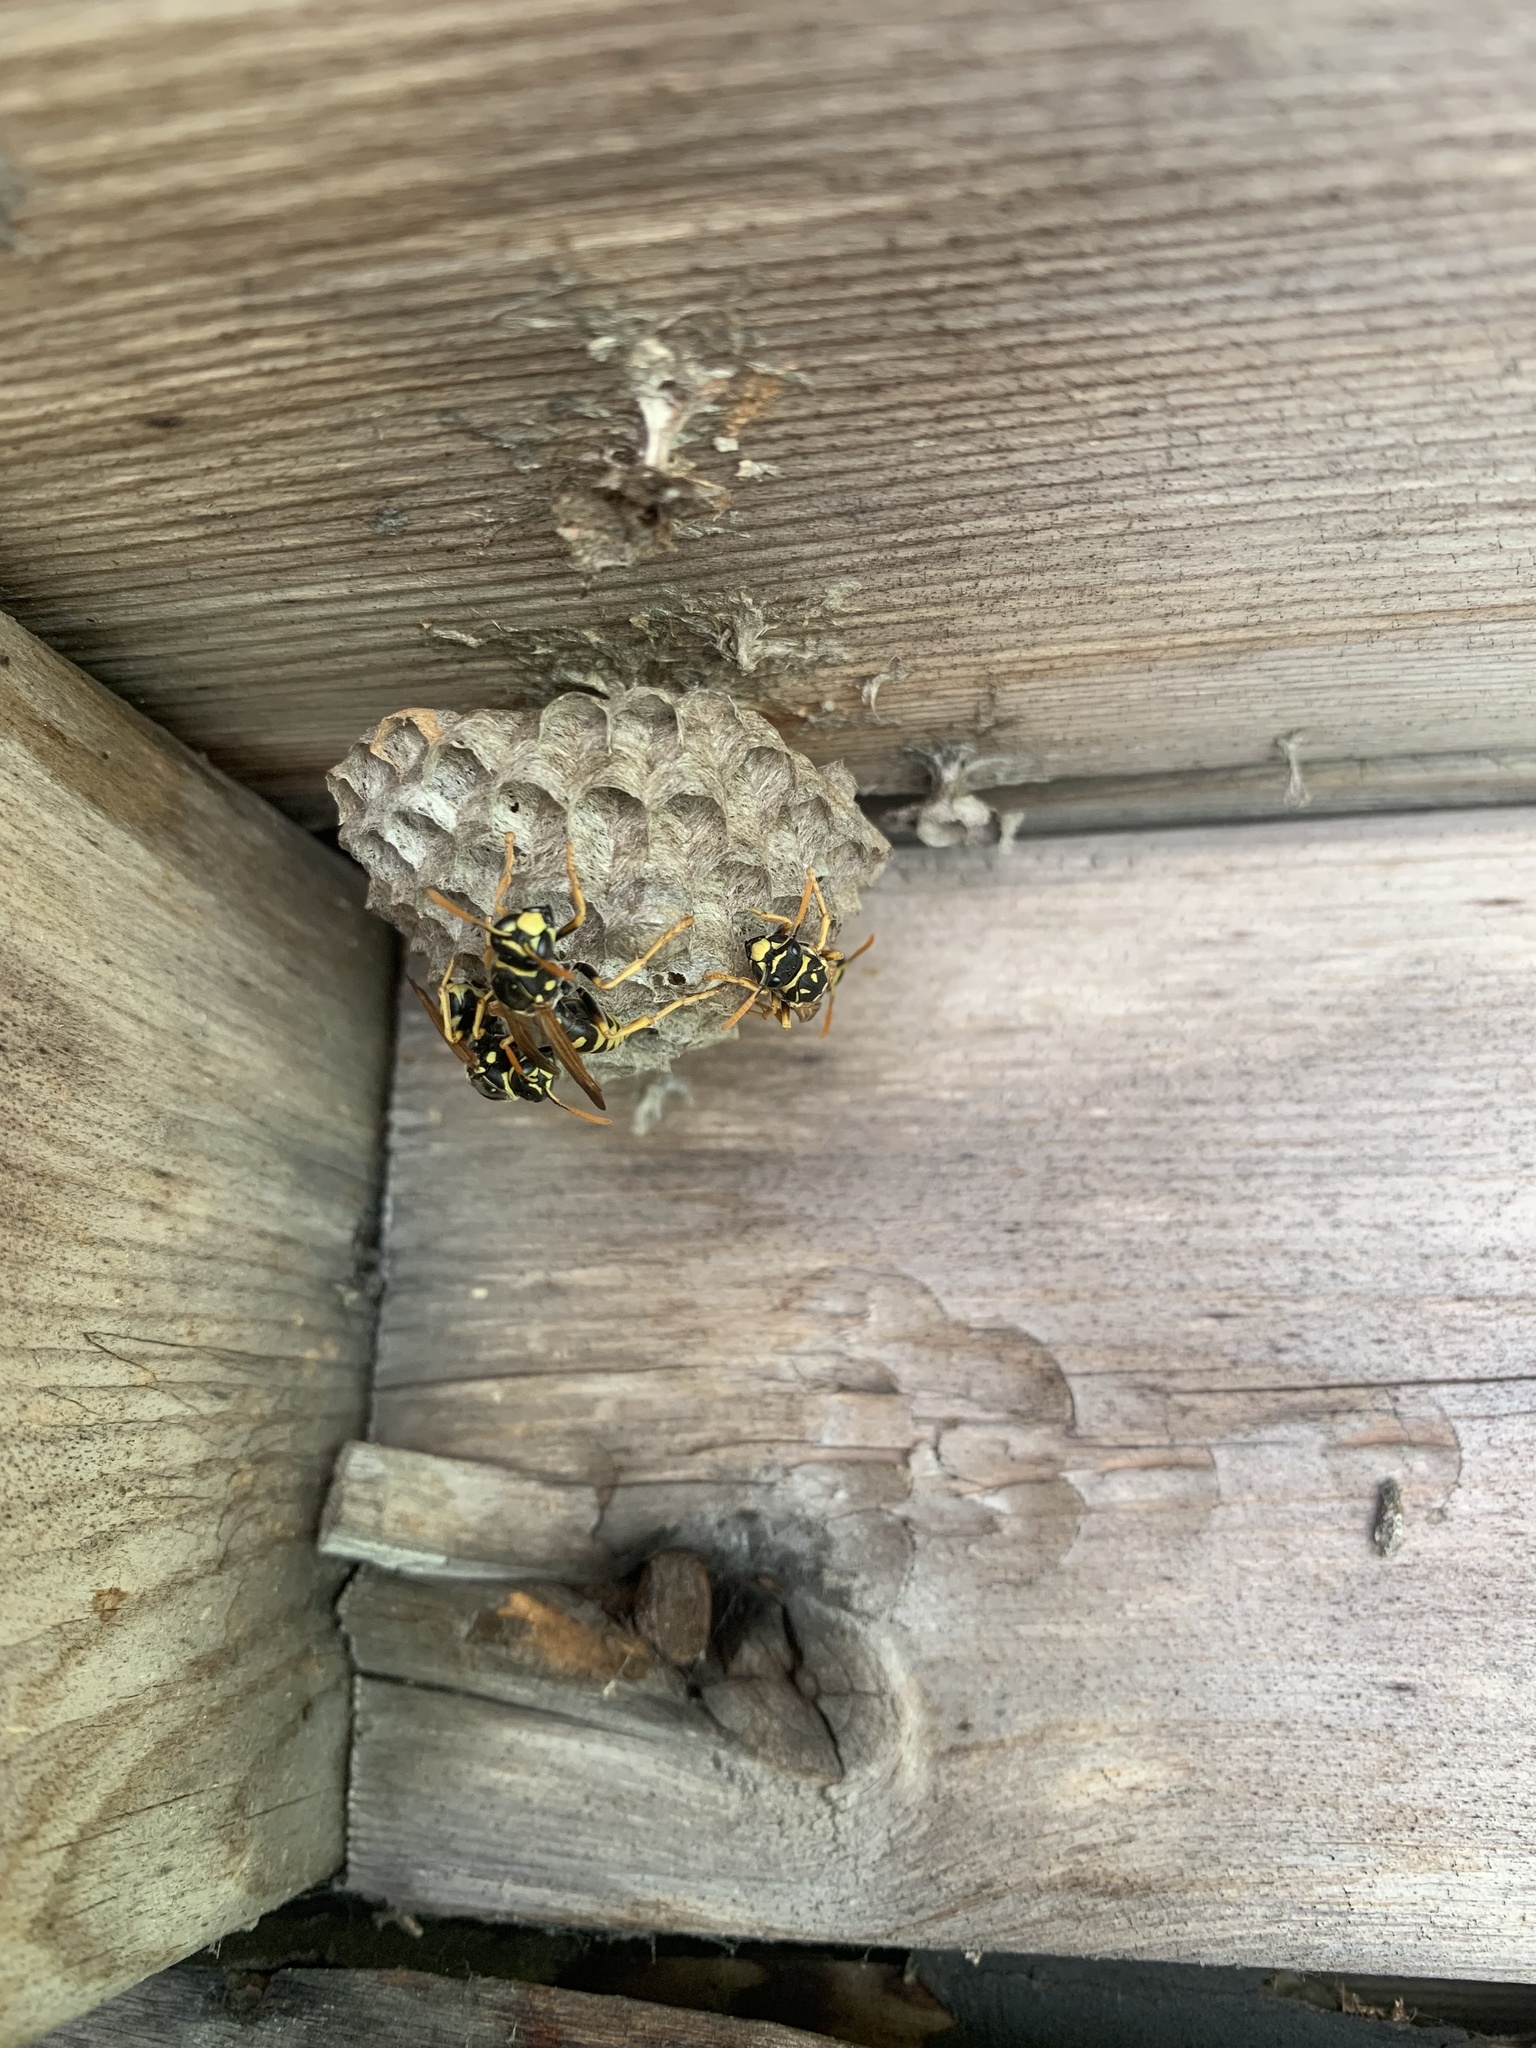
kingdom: Animalia
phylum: Arthropoda
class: Insecta
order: Hymenoptera
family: Eumenidae
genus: Polistes
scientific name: Polistes dominula
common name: Paper wasp
